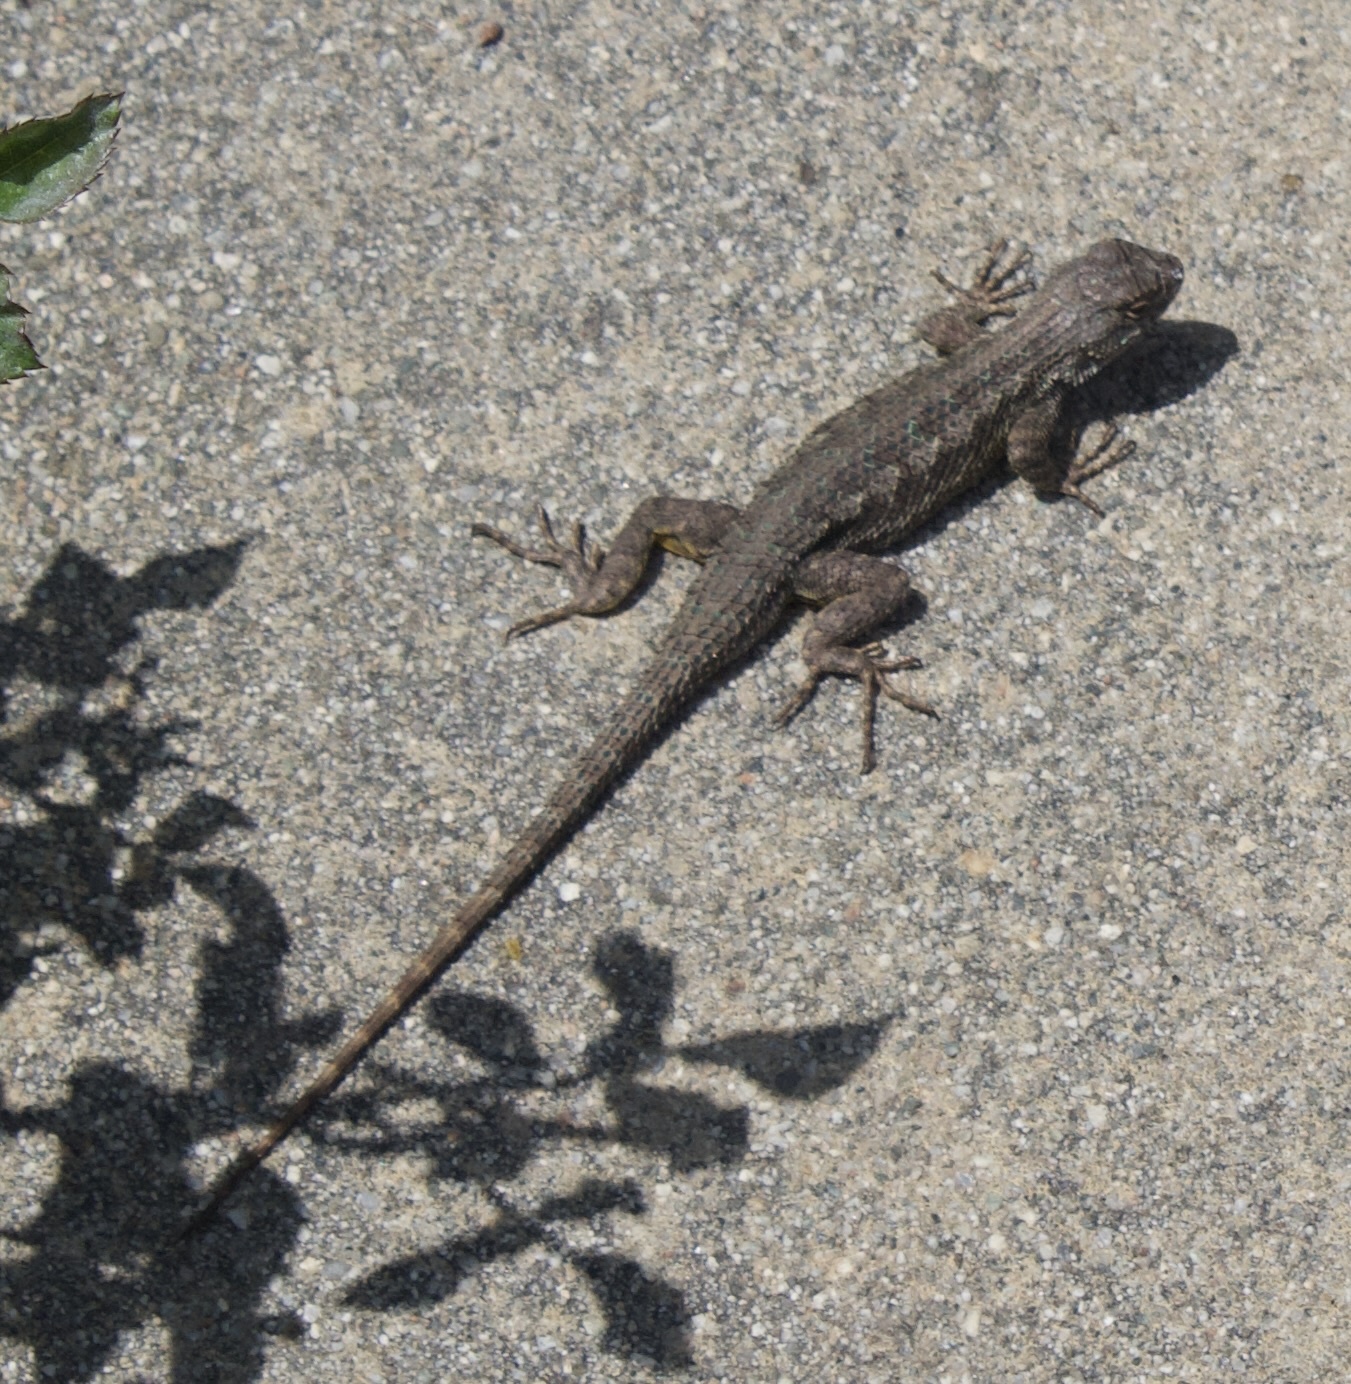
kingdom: Animalia
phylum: Chordata
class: Squamata
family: Phrynosomatidae
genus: Sceloporus
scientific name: Sceloporus occidentalis
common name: Western fence lizard
